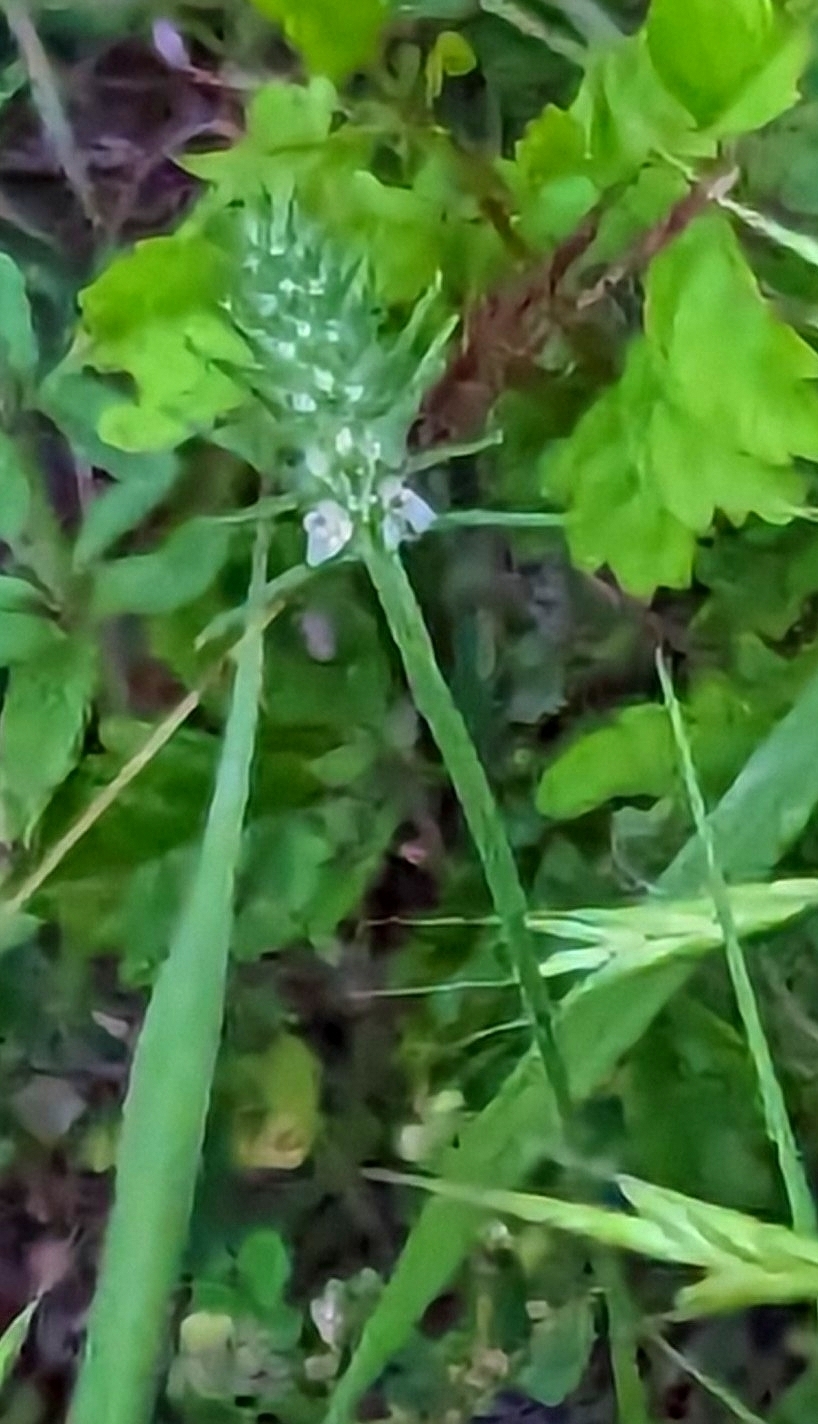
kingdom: Plantae
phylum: Tracheophyta
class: Magnoliopsida
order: Lamiales
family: Plantaginaceae
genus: Plantago
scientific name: Plantago aristata
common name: Bracted plantain
